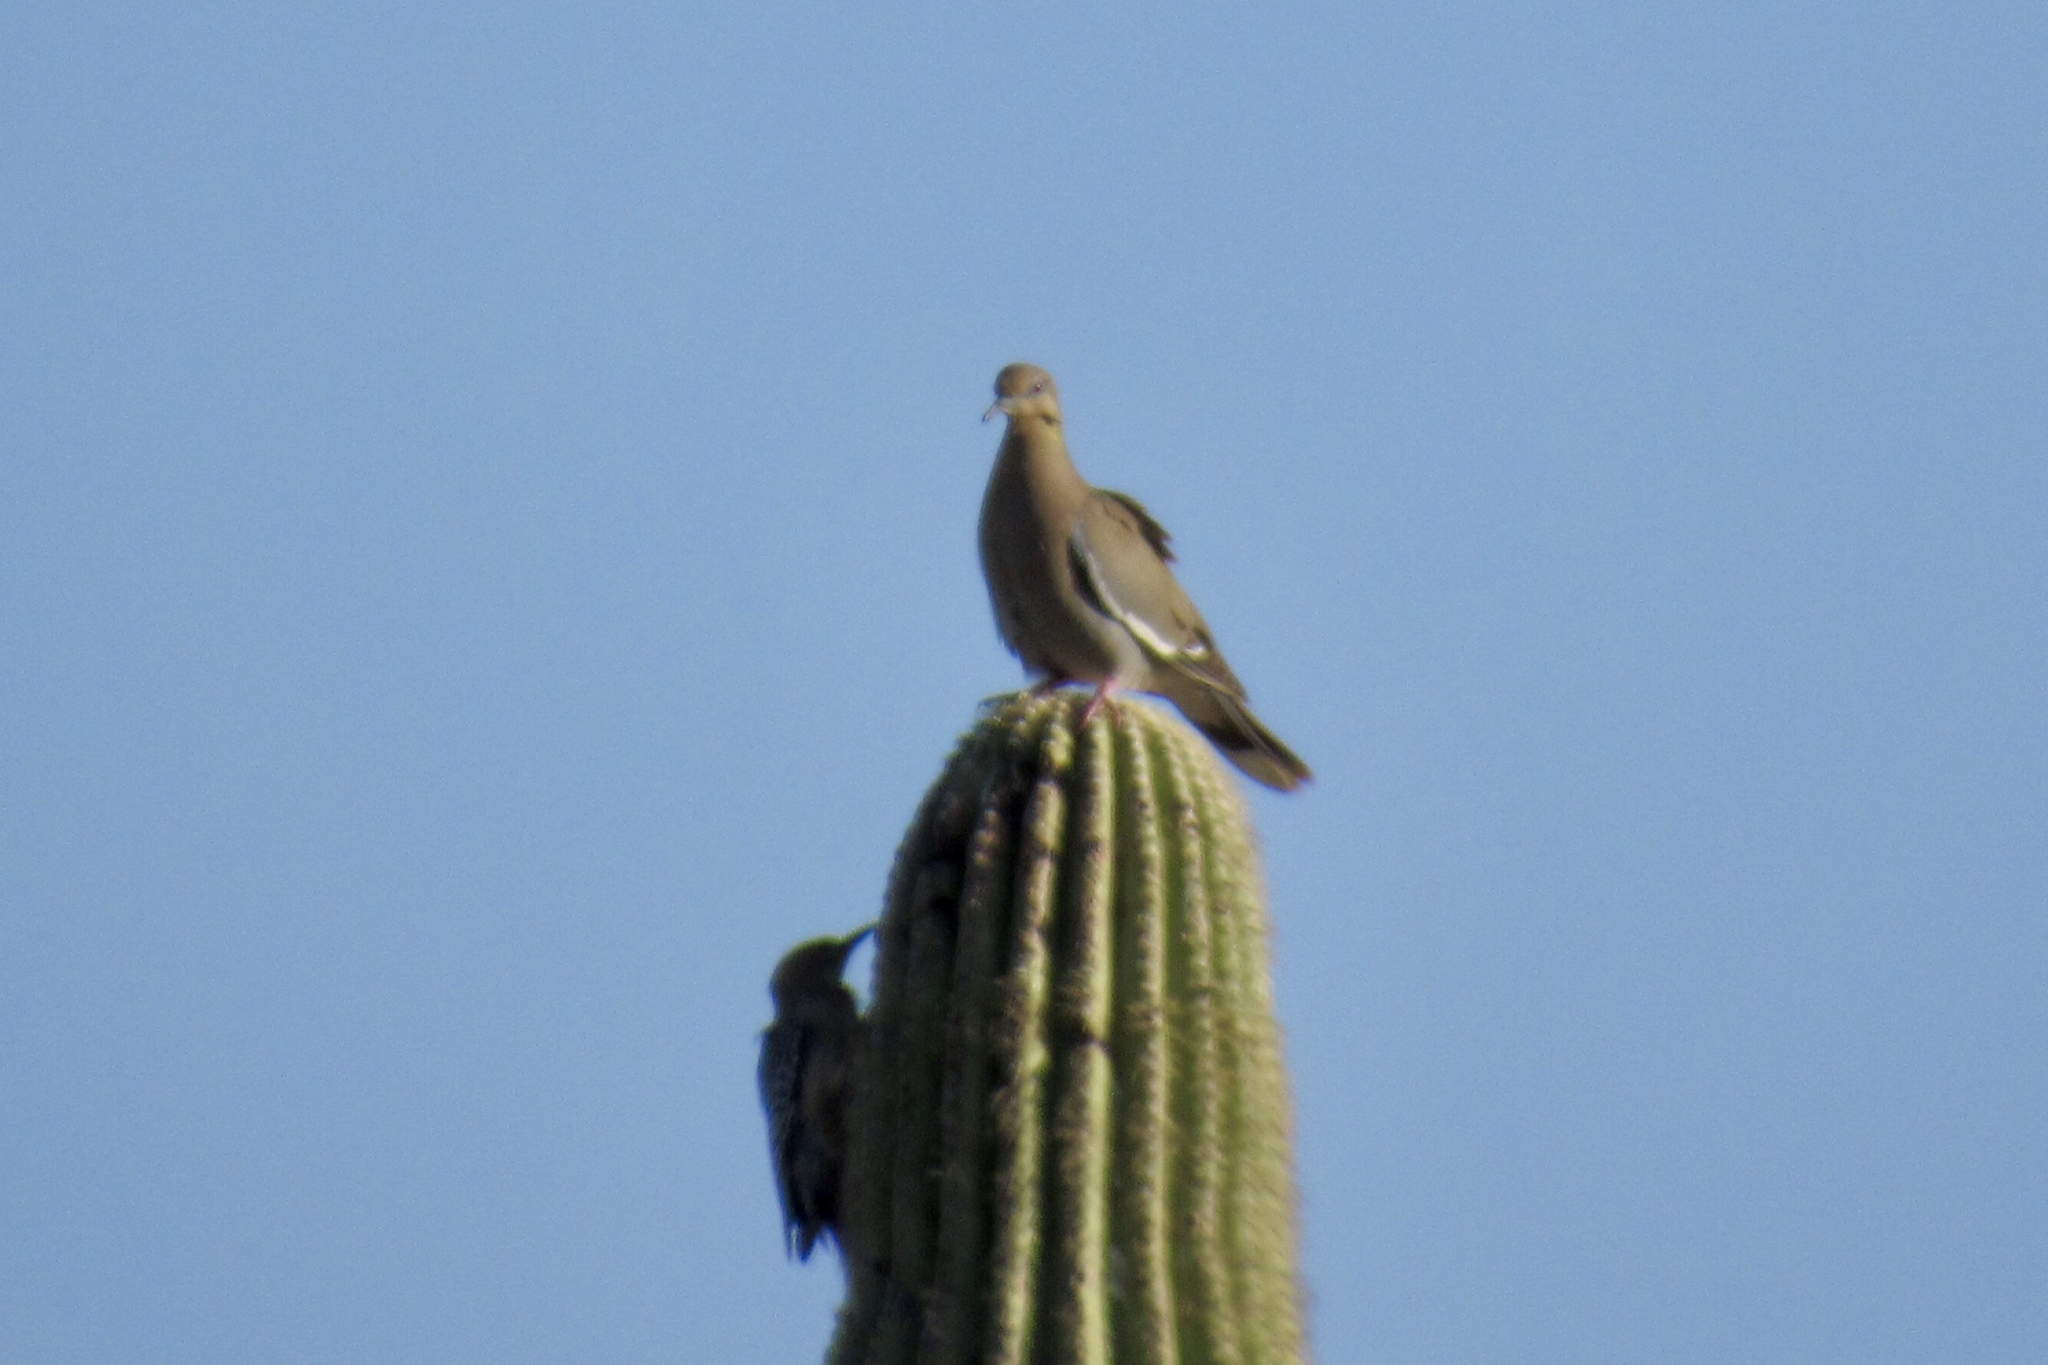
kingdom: Animalia
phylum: Chordata
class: Aves
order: Columbiformes
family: Columbidae
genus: Zenaida
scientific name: Zenaida asiatica
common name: White-winged dove
